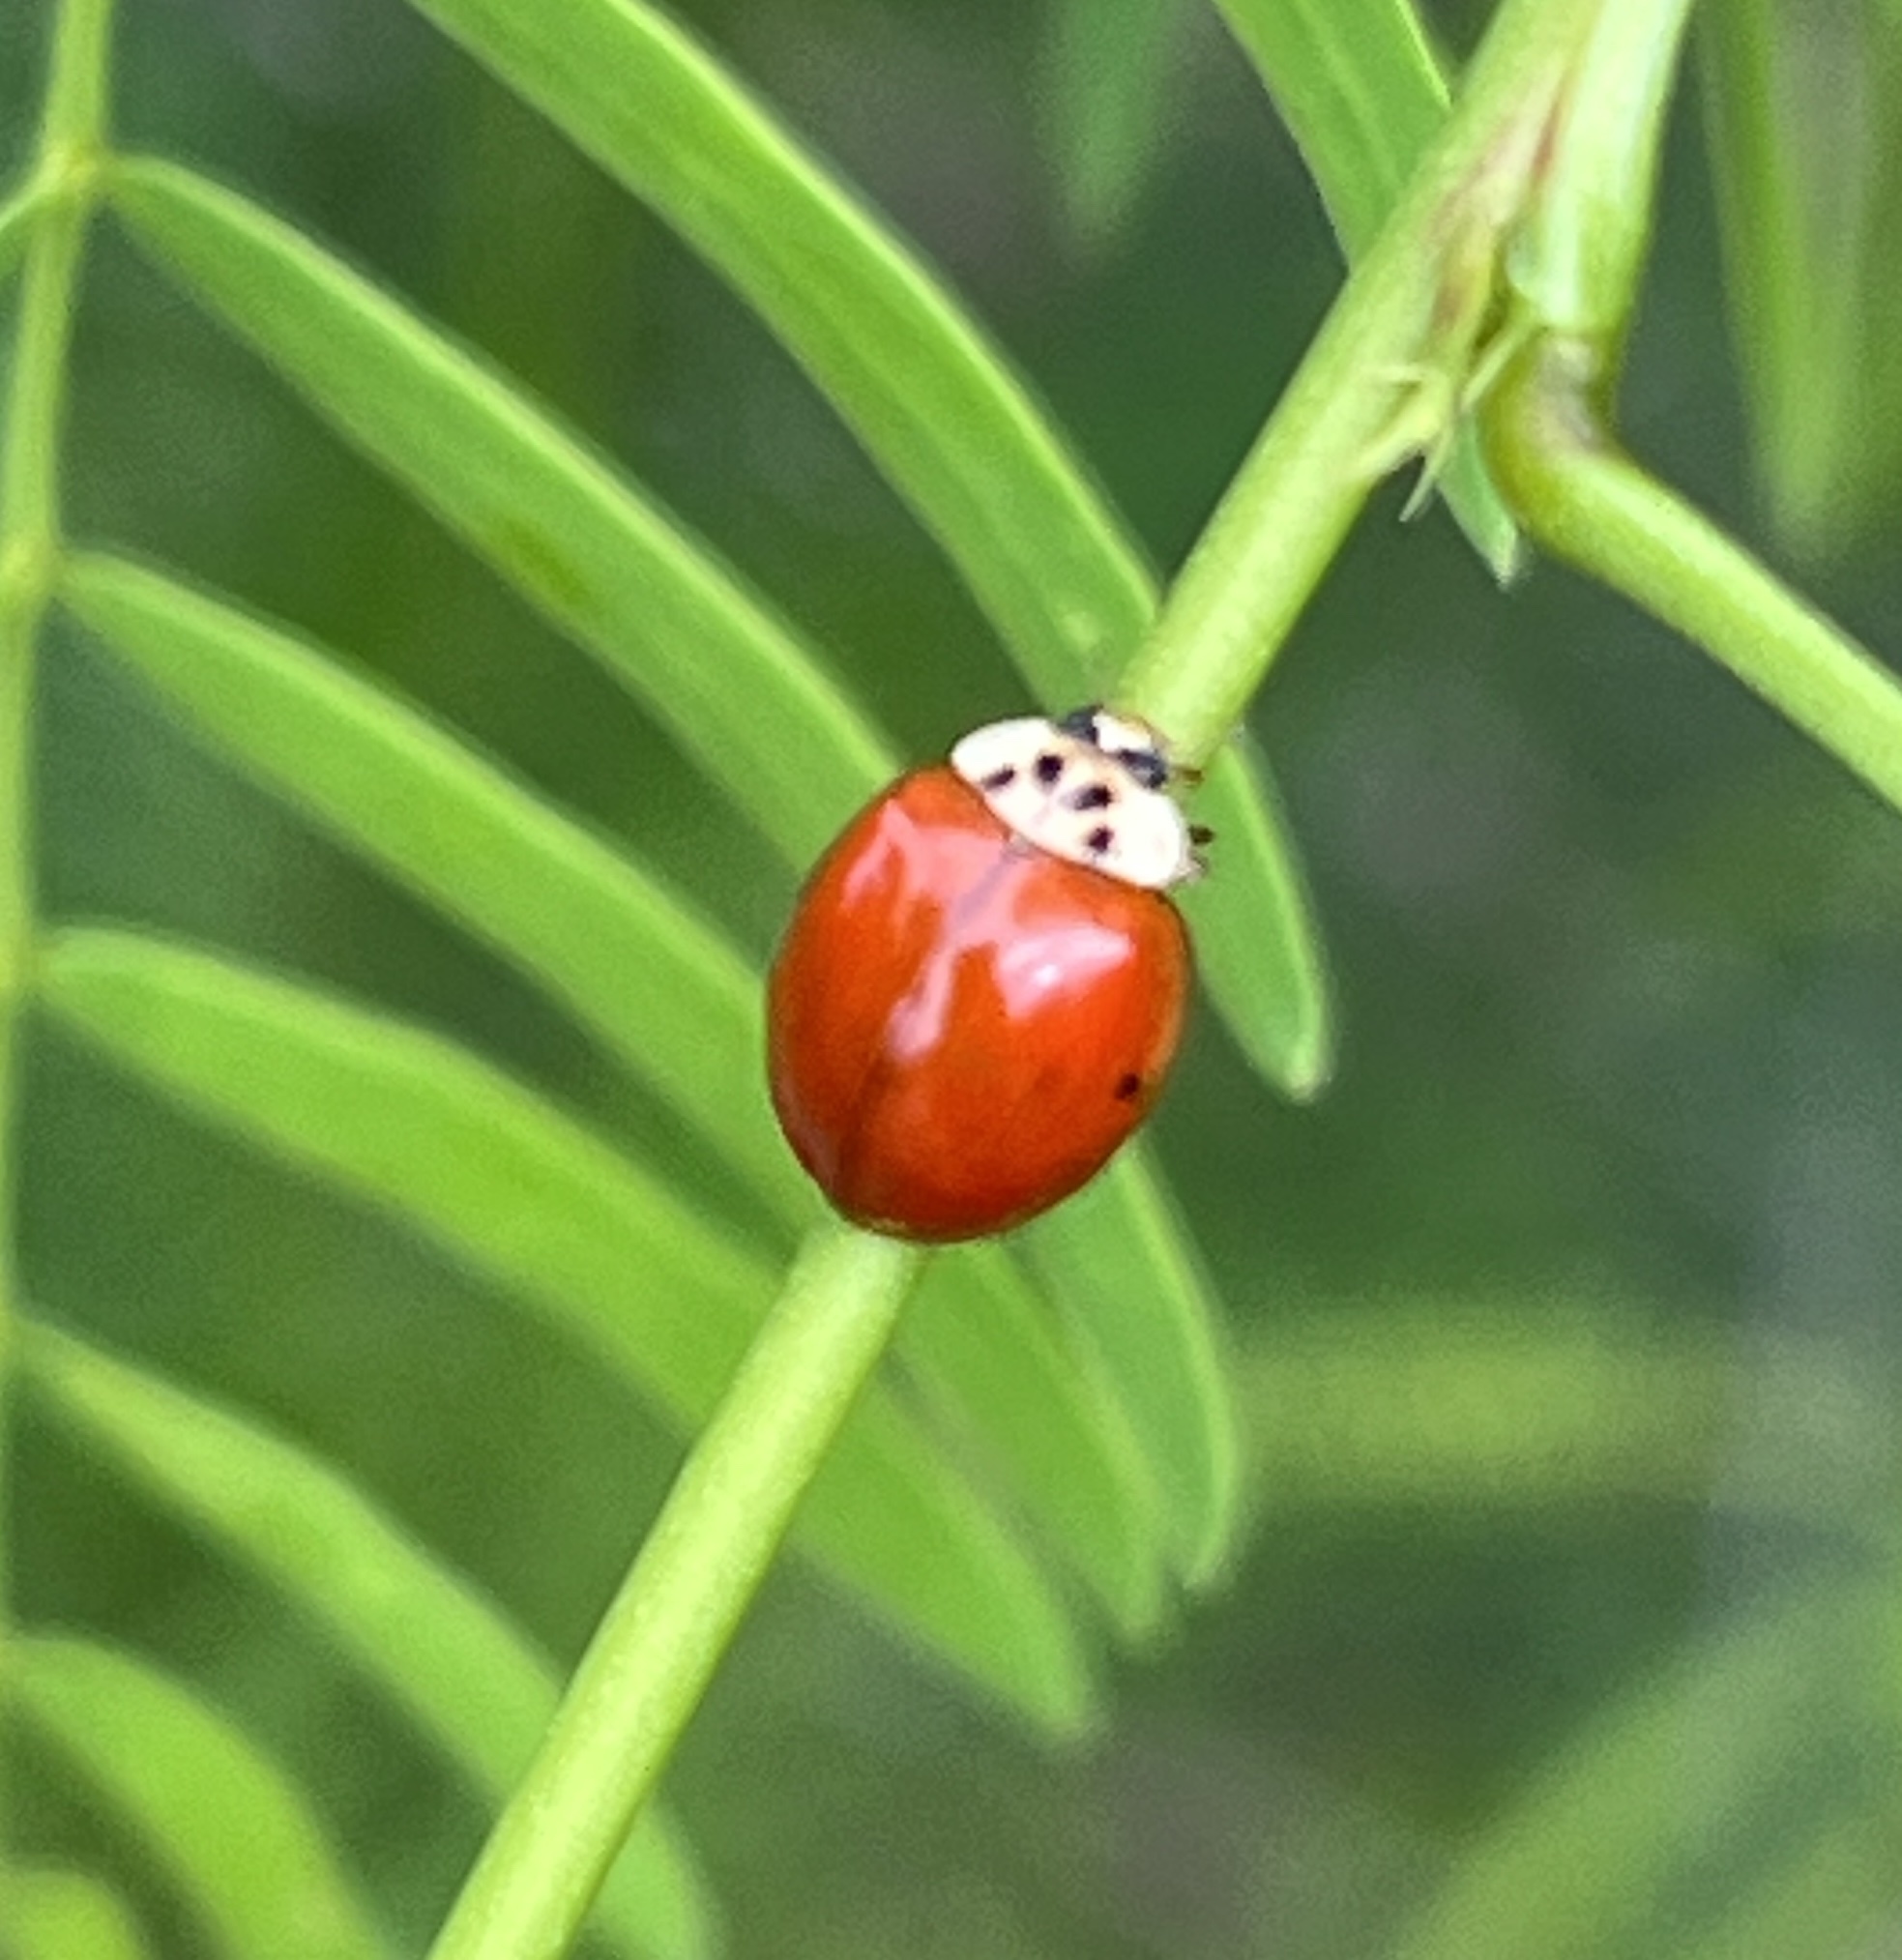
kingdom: Animalia
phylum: Arthropoda
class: Insecta
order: Coleoptera
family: Coccinellidae
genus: Harmonia
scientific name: Harmonia axyridis
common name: Harlequin ladybird
